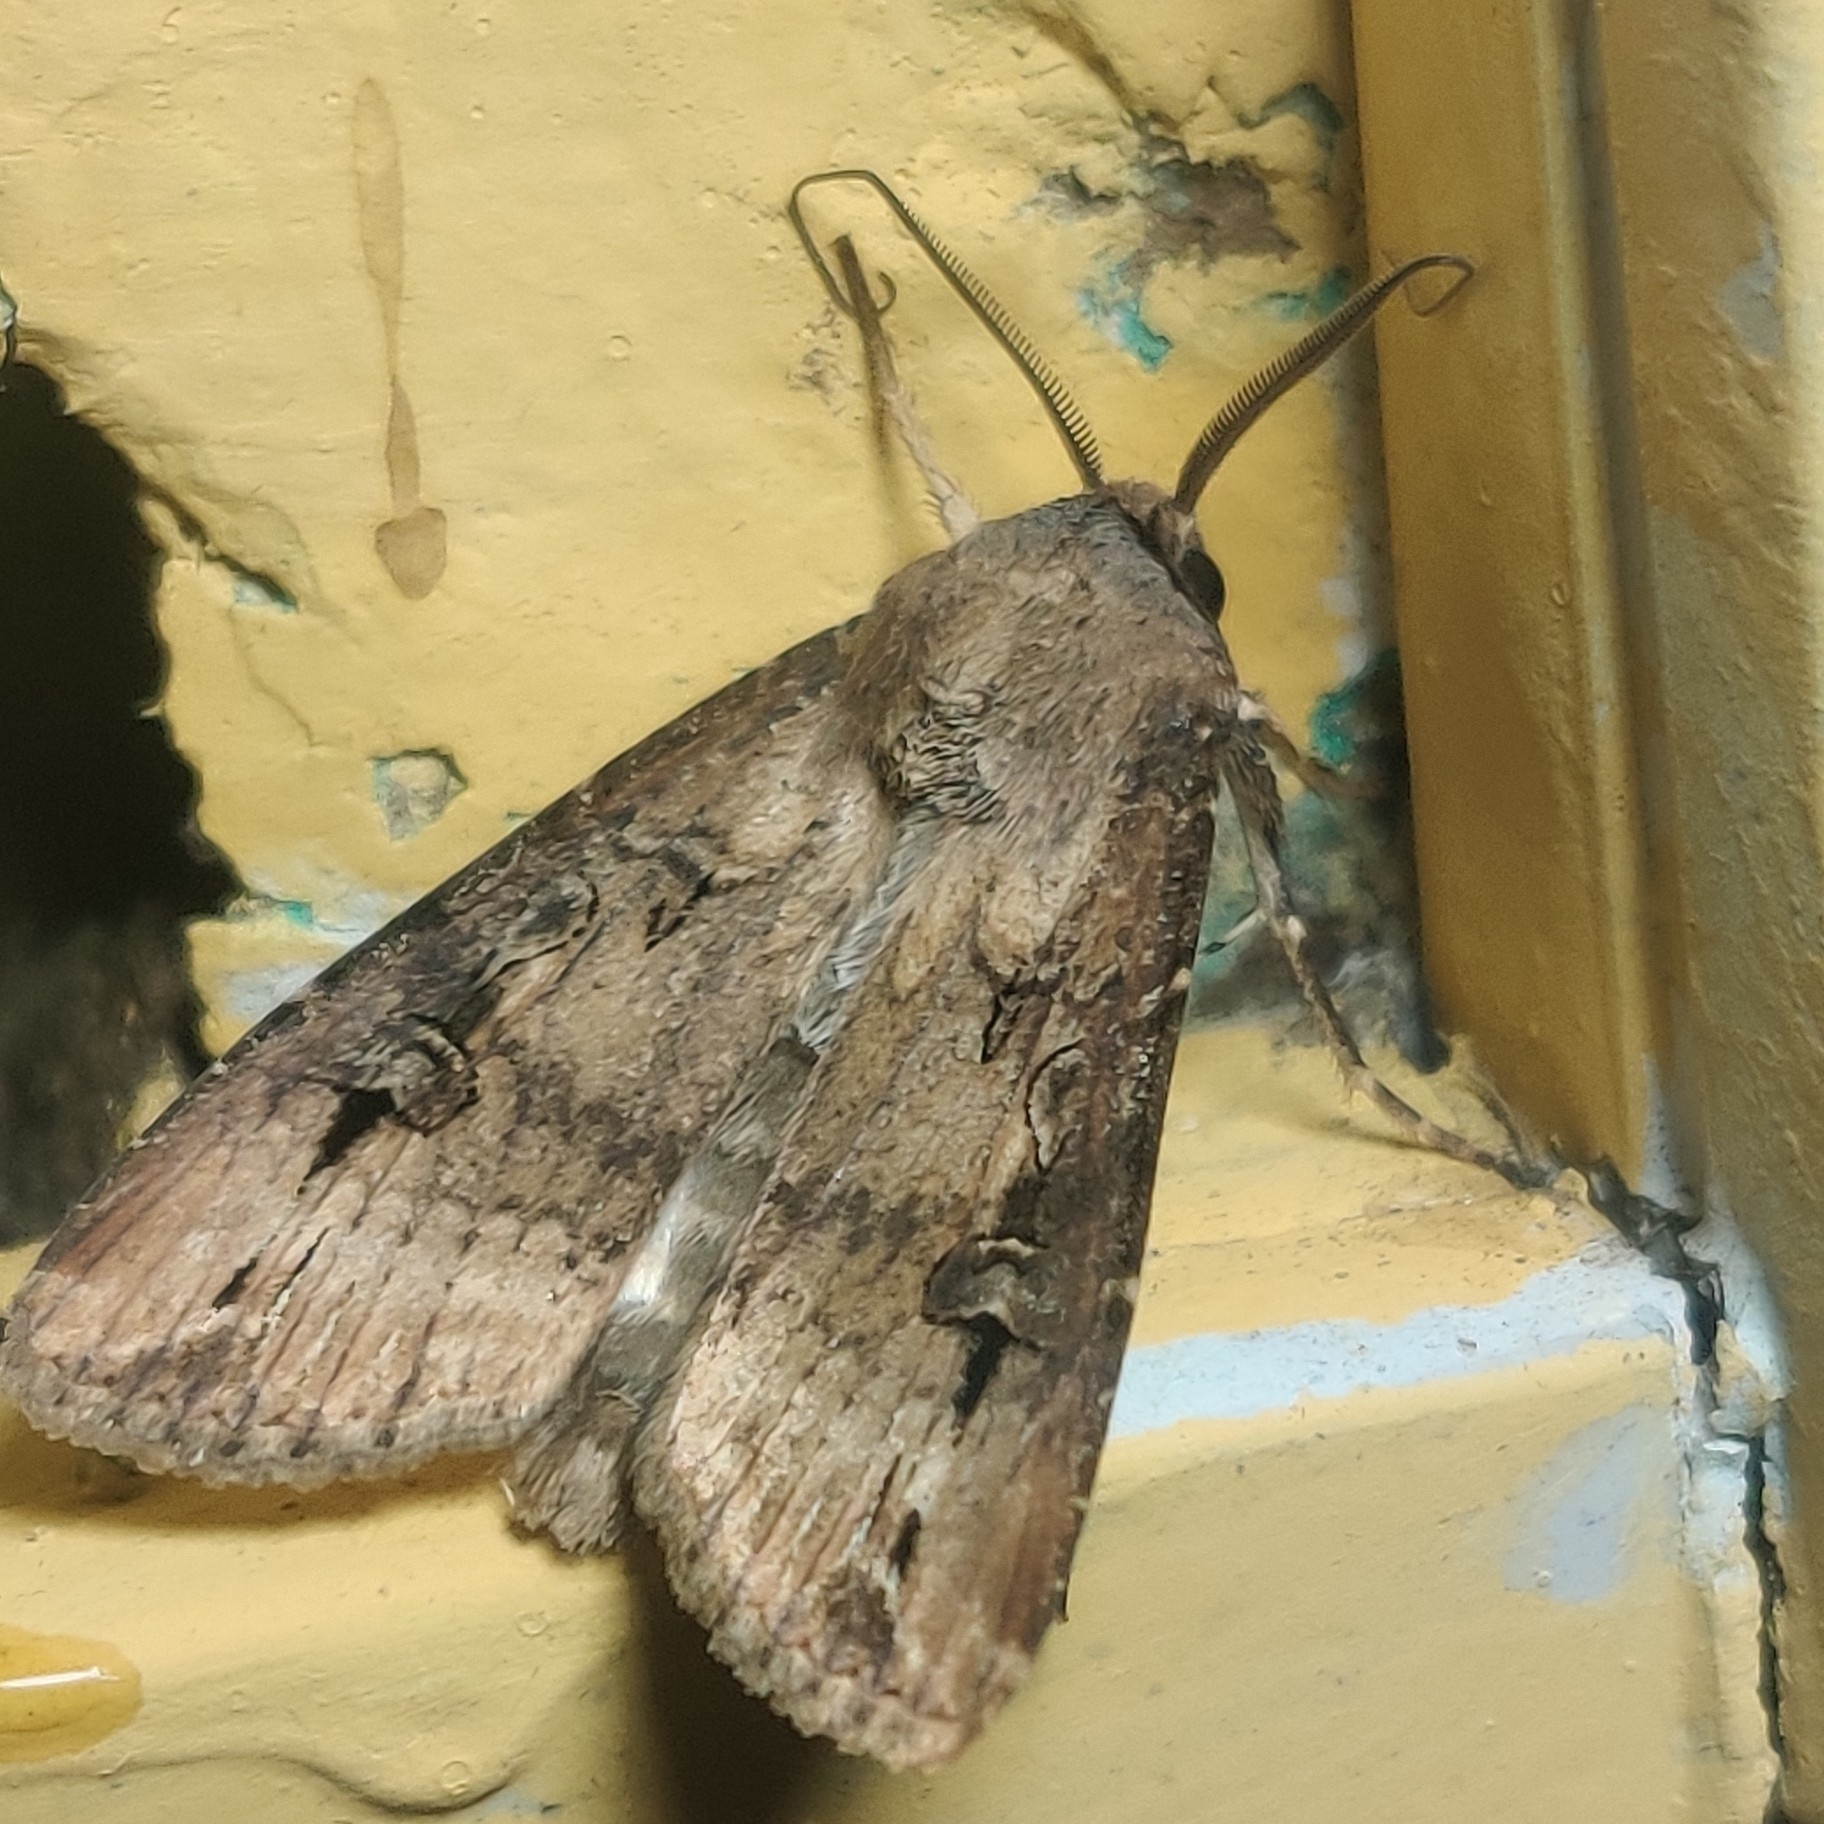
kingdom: Animalia
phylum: Arthropoda
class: Insecta
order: Lepidoptera
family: Noctuidae
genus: Agrotis
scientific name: Agrotis ipsilon
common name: Dark sword-grass
